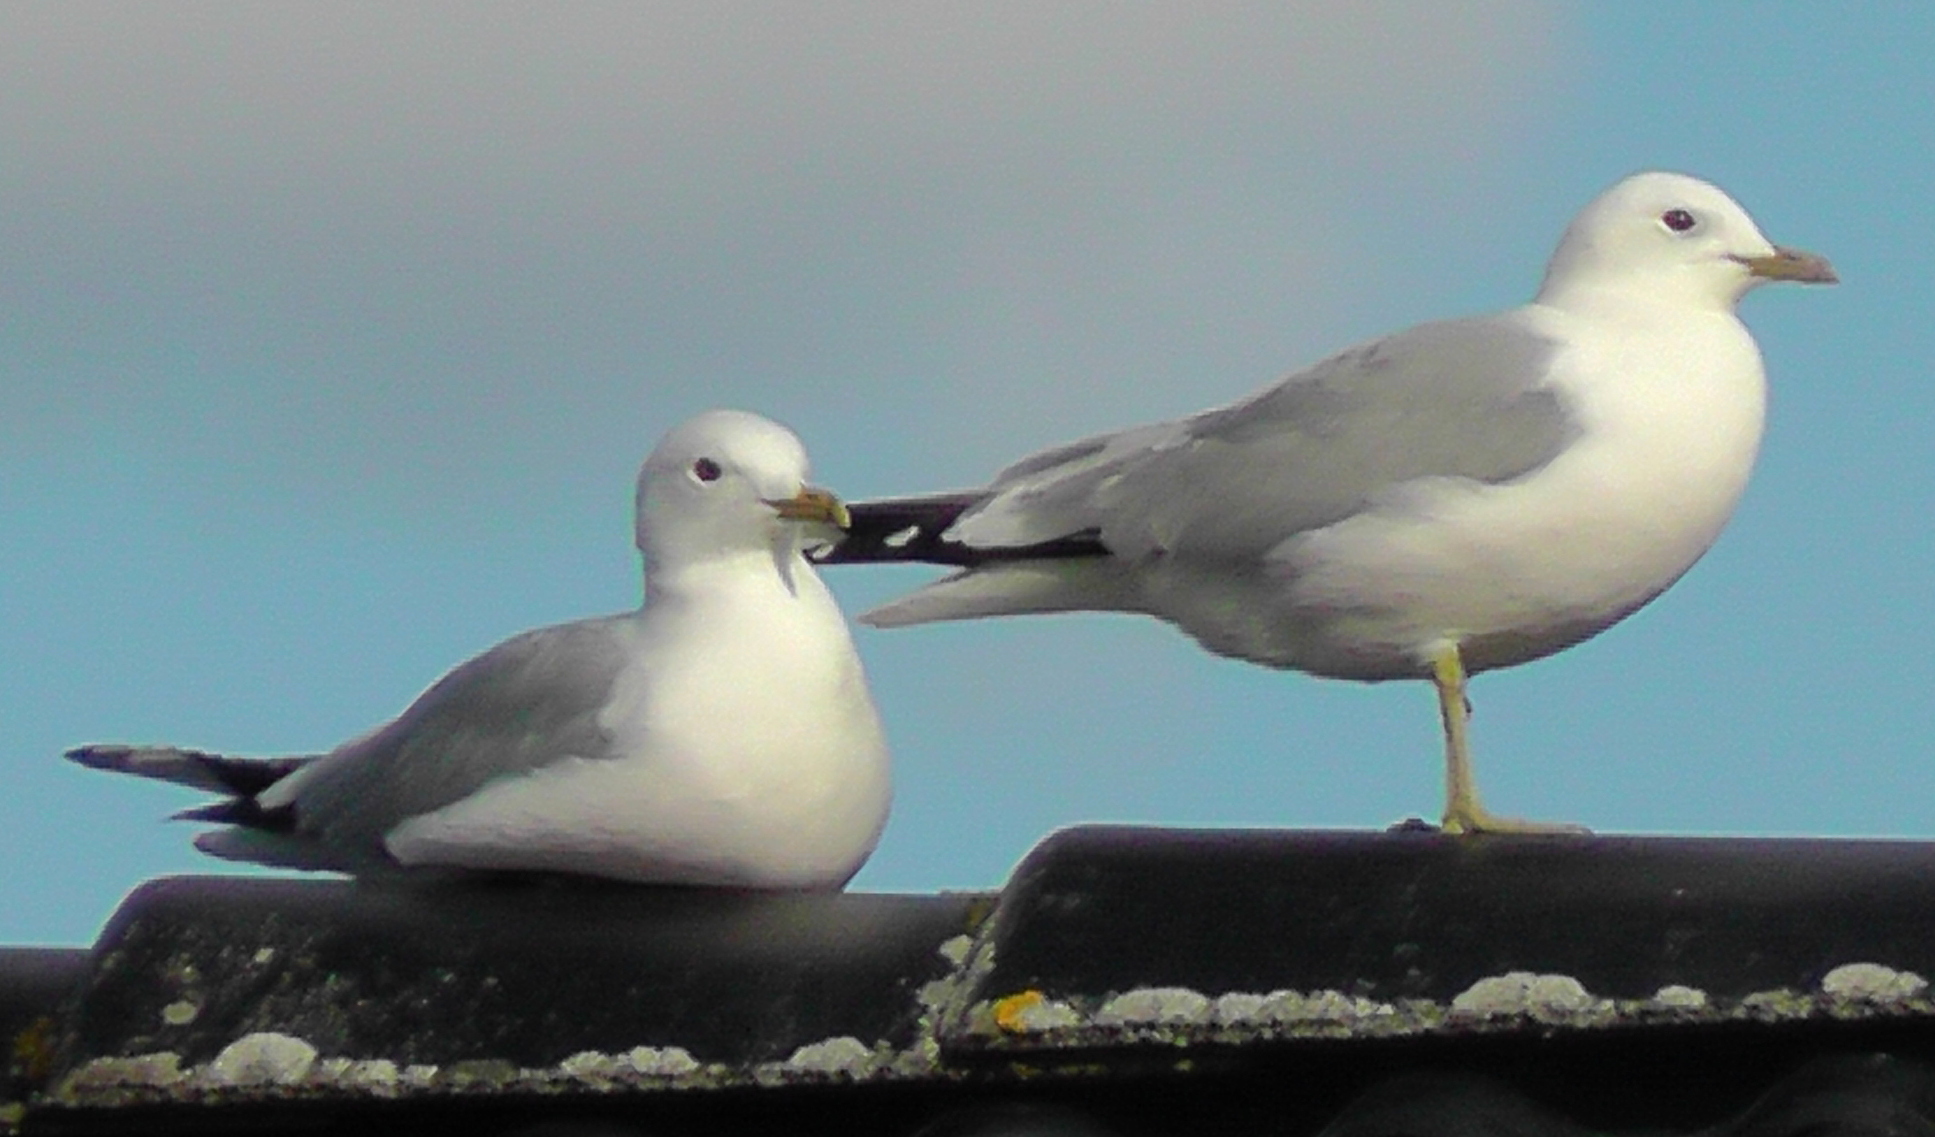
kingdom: Animalia
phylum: Chordata
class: Aves
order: Charadriiformes
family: Laridae
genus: Larus
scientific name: Larus canus
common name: Mew gull
